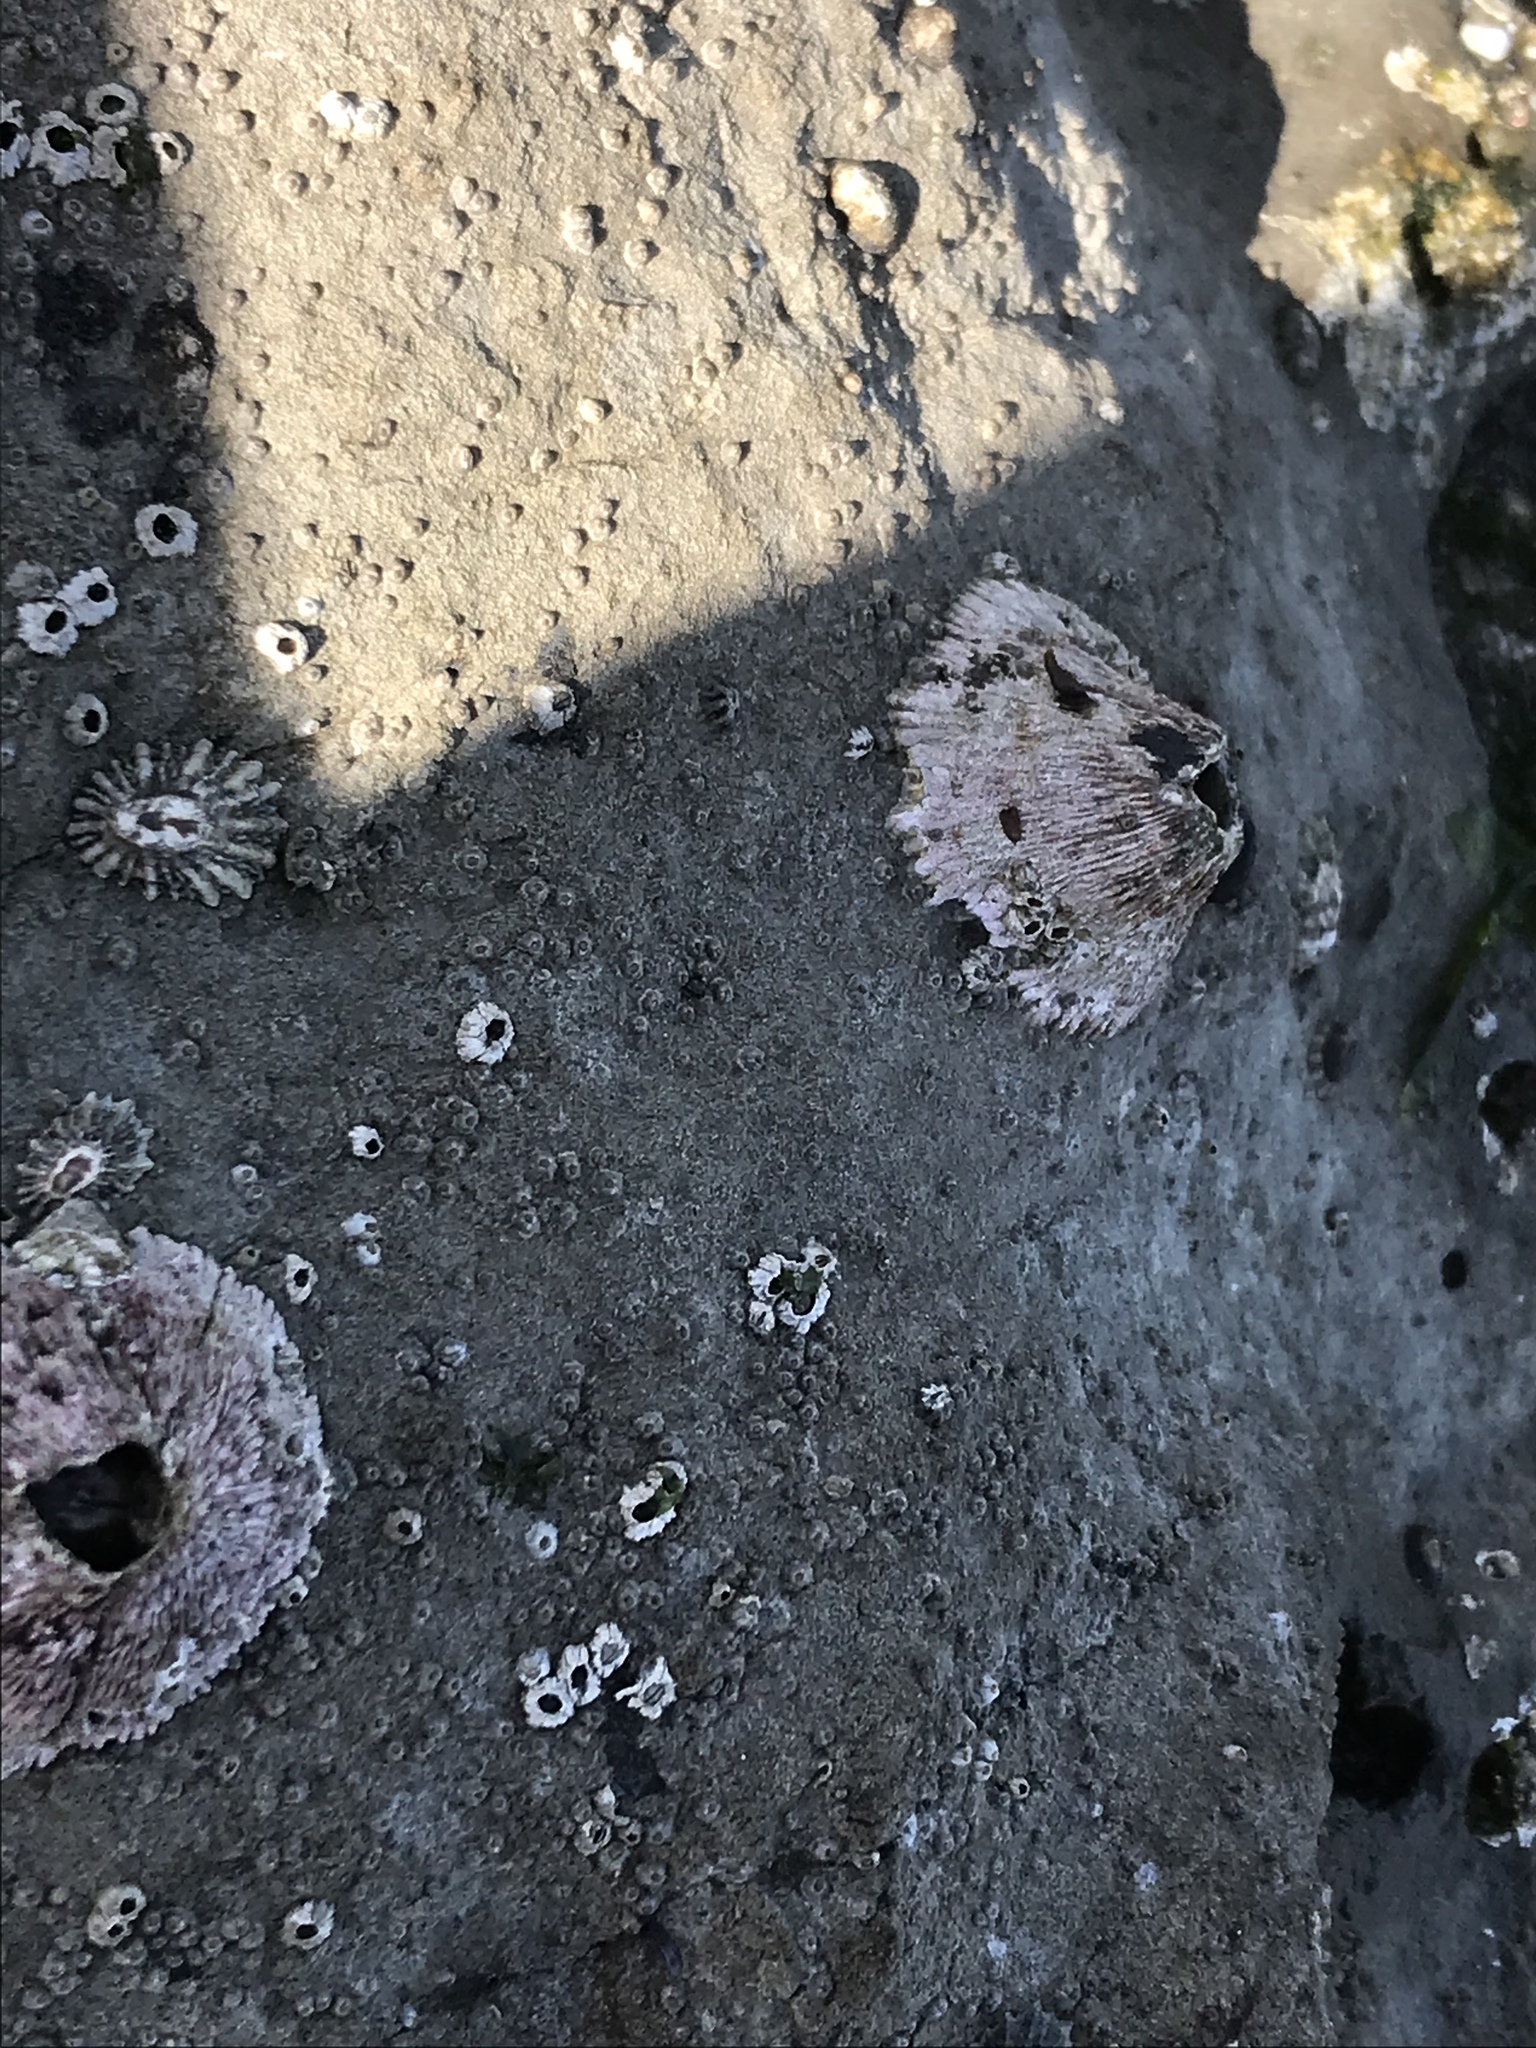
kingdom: Animalia
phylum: Arthropoda
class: Maxillopoda
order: Sessilia
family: Tetraclitidae
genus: Tetraclita
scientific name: Tetraclita rubescens
